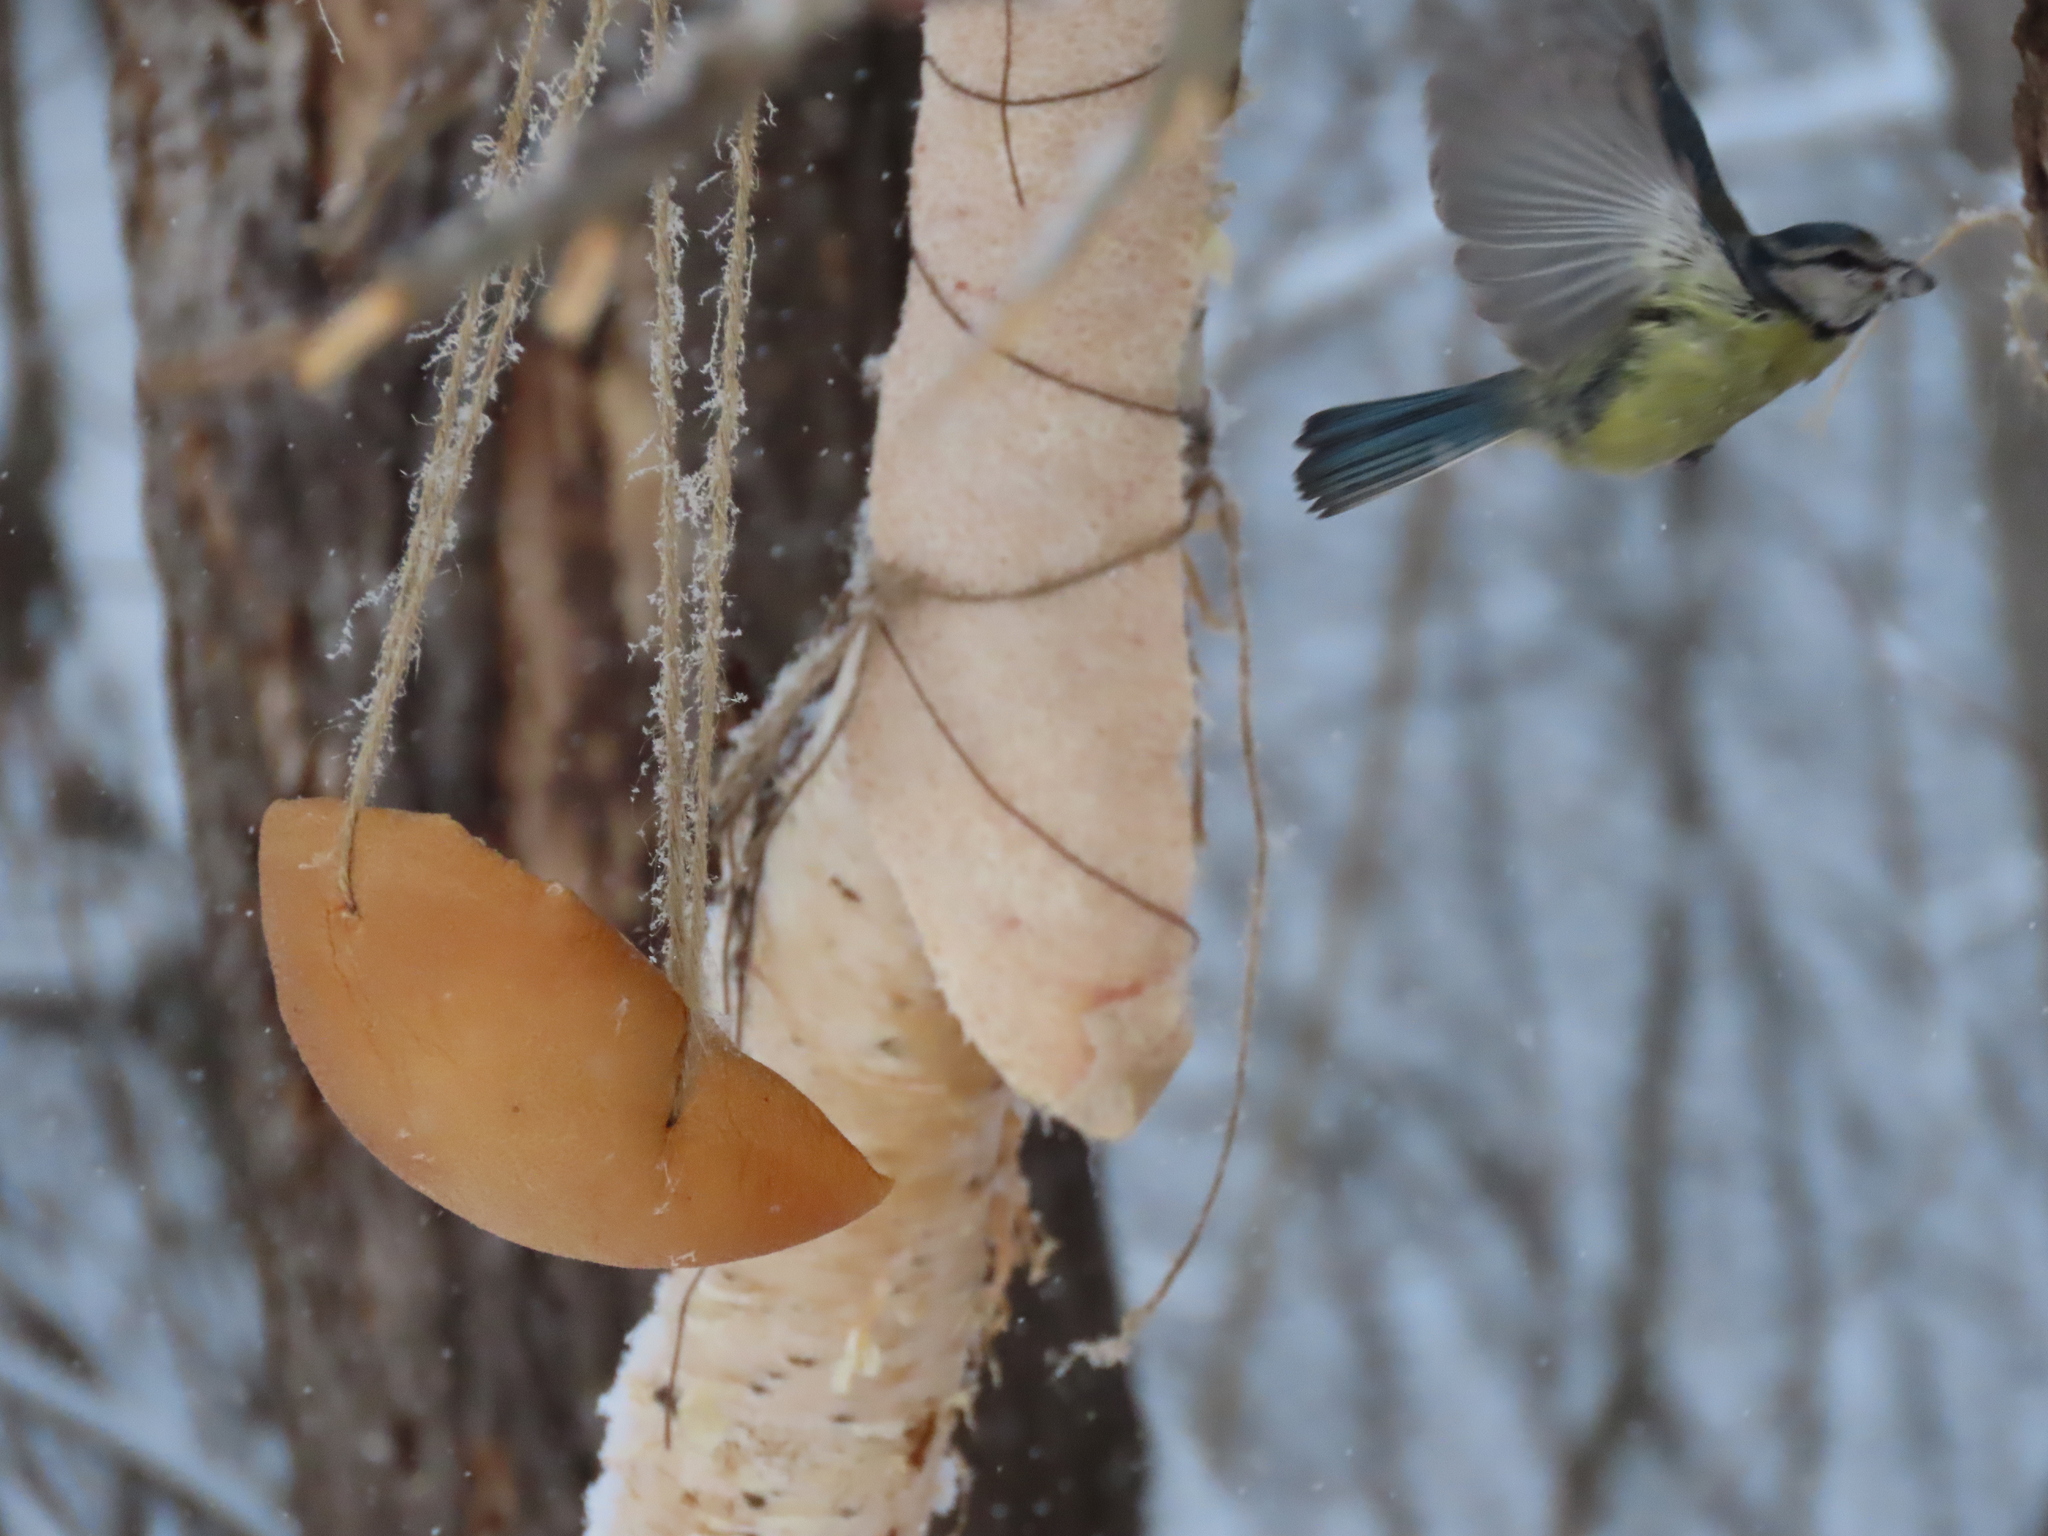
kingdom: Animalia
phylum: Chordata
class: Aves
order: Passeriformes
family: Paridae
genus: Cyanistes
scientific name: Cyanistes caeruleus
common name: Eurasian blue tit
